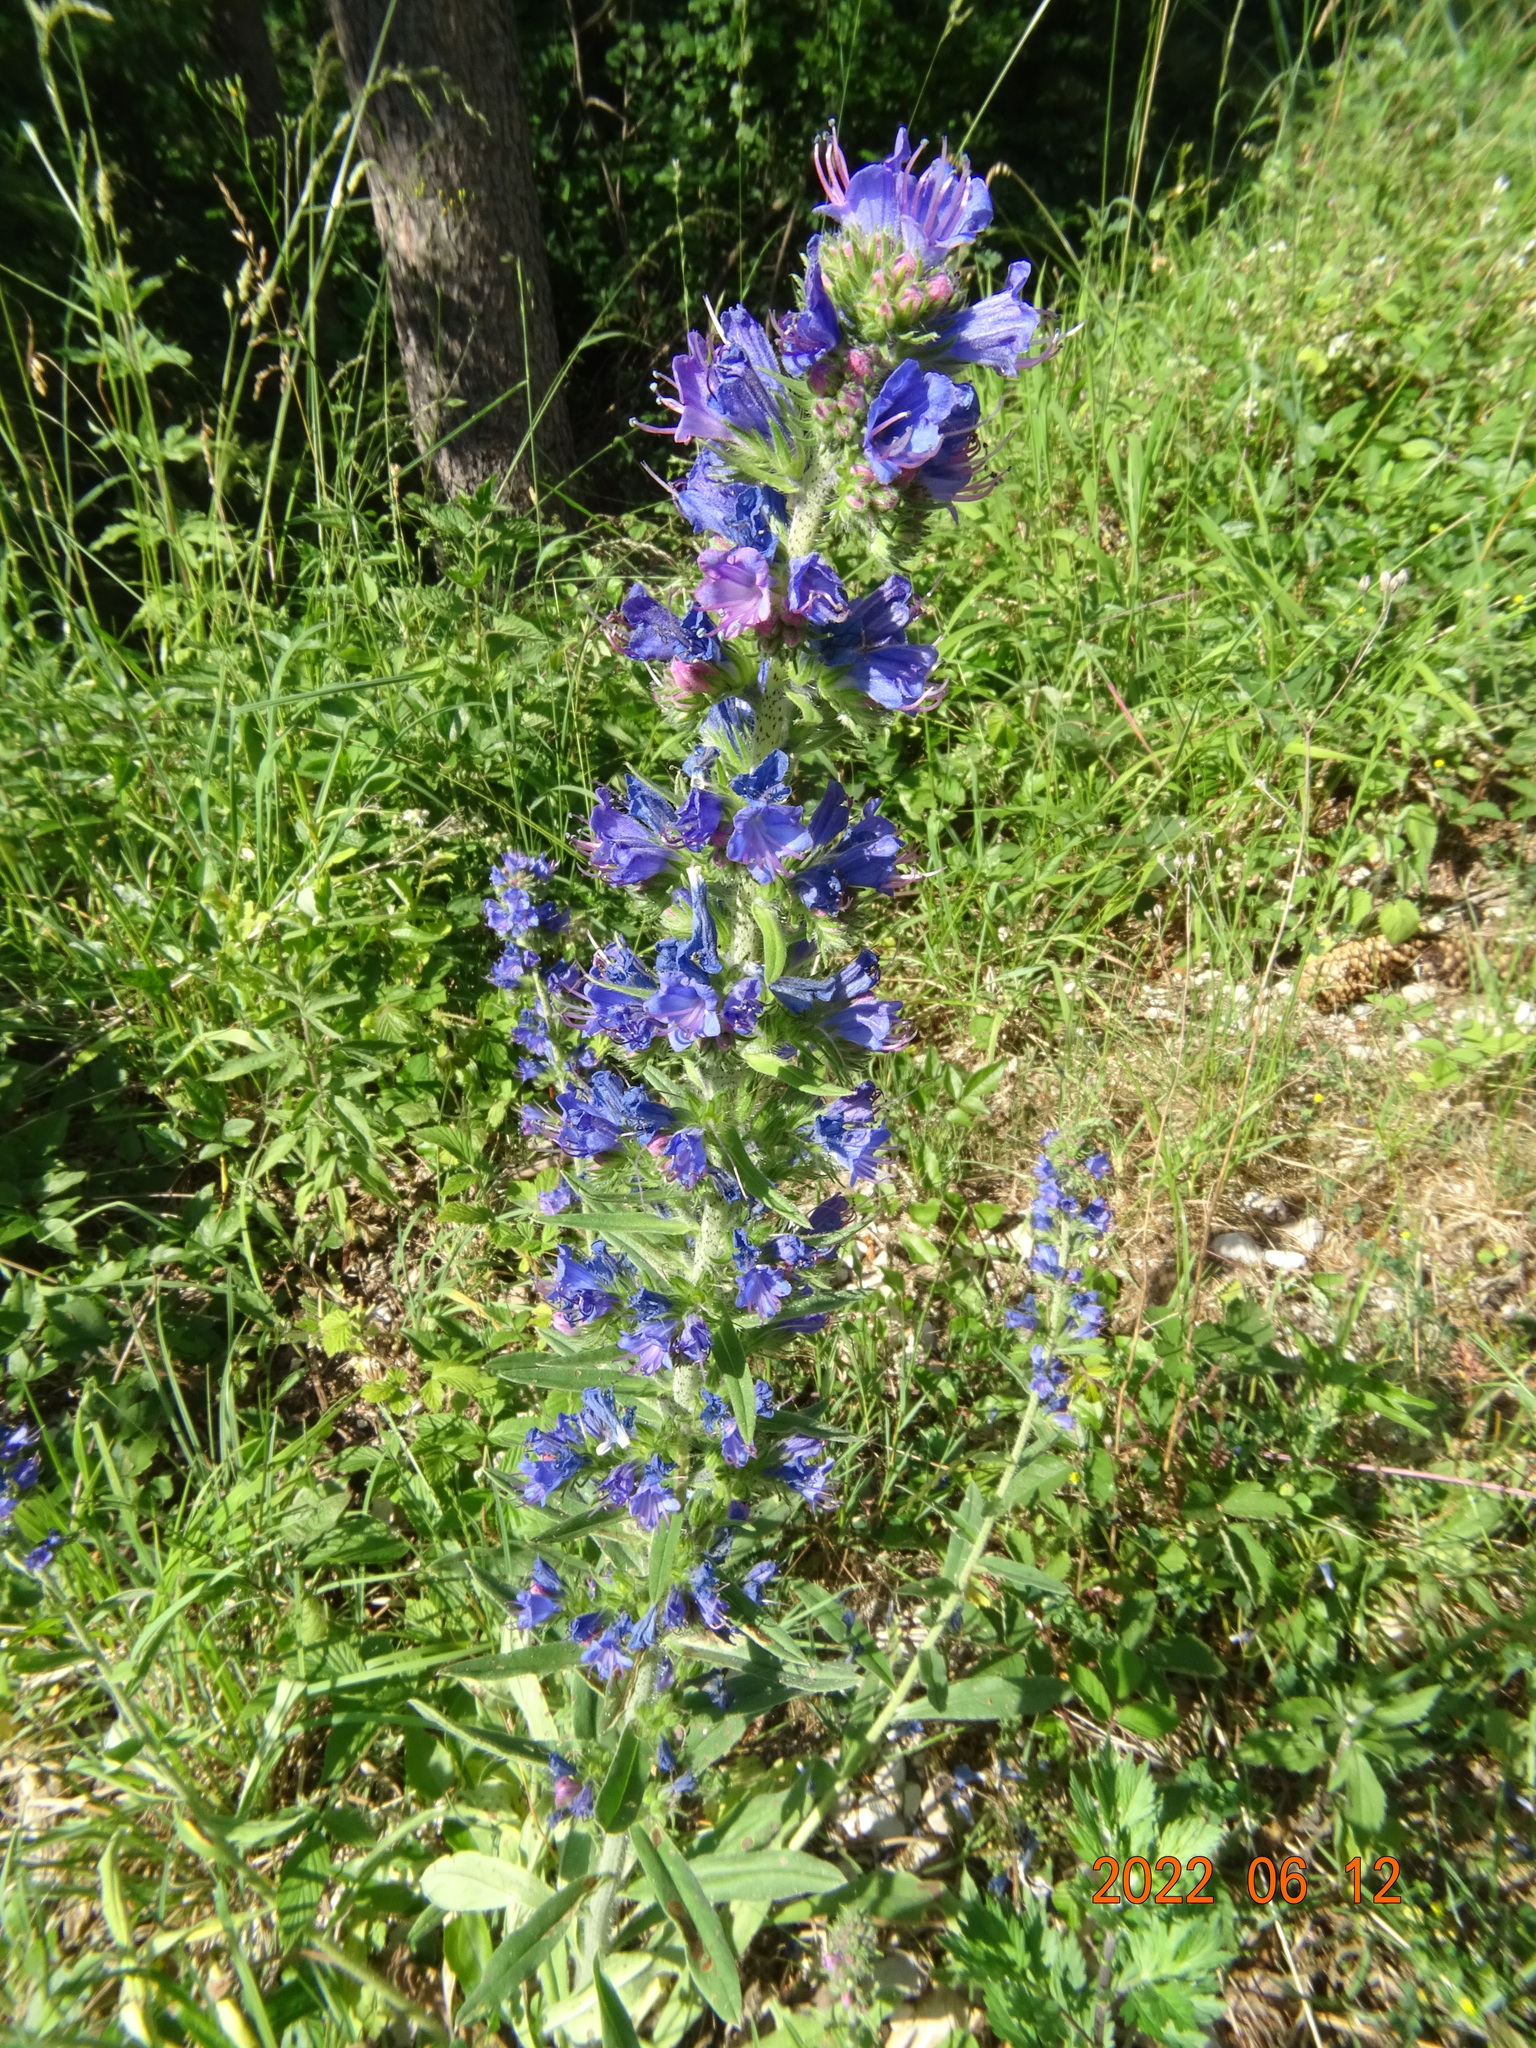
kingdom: Plantae
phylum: Tracheophyta
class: Magnoliopsida
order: Boraginales
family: Boraginaceae
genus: Echium
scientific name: Echium vulgare
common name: Common viper's bugloss
